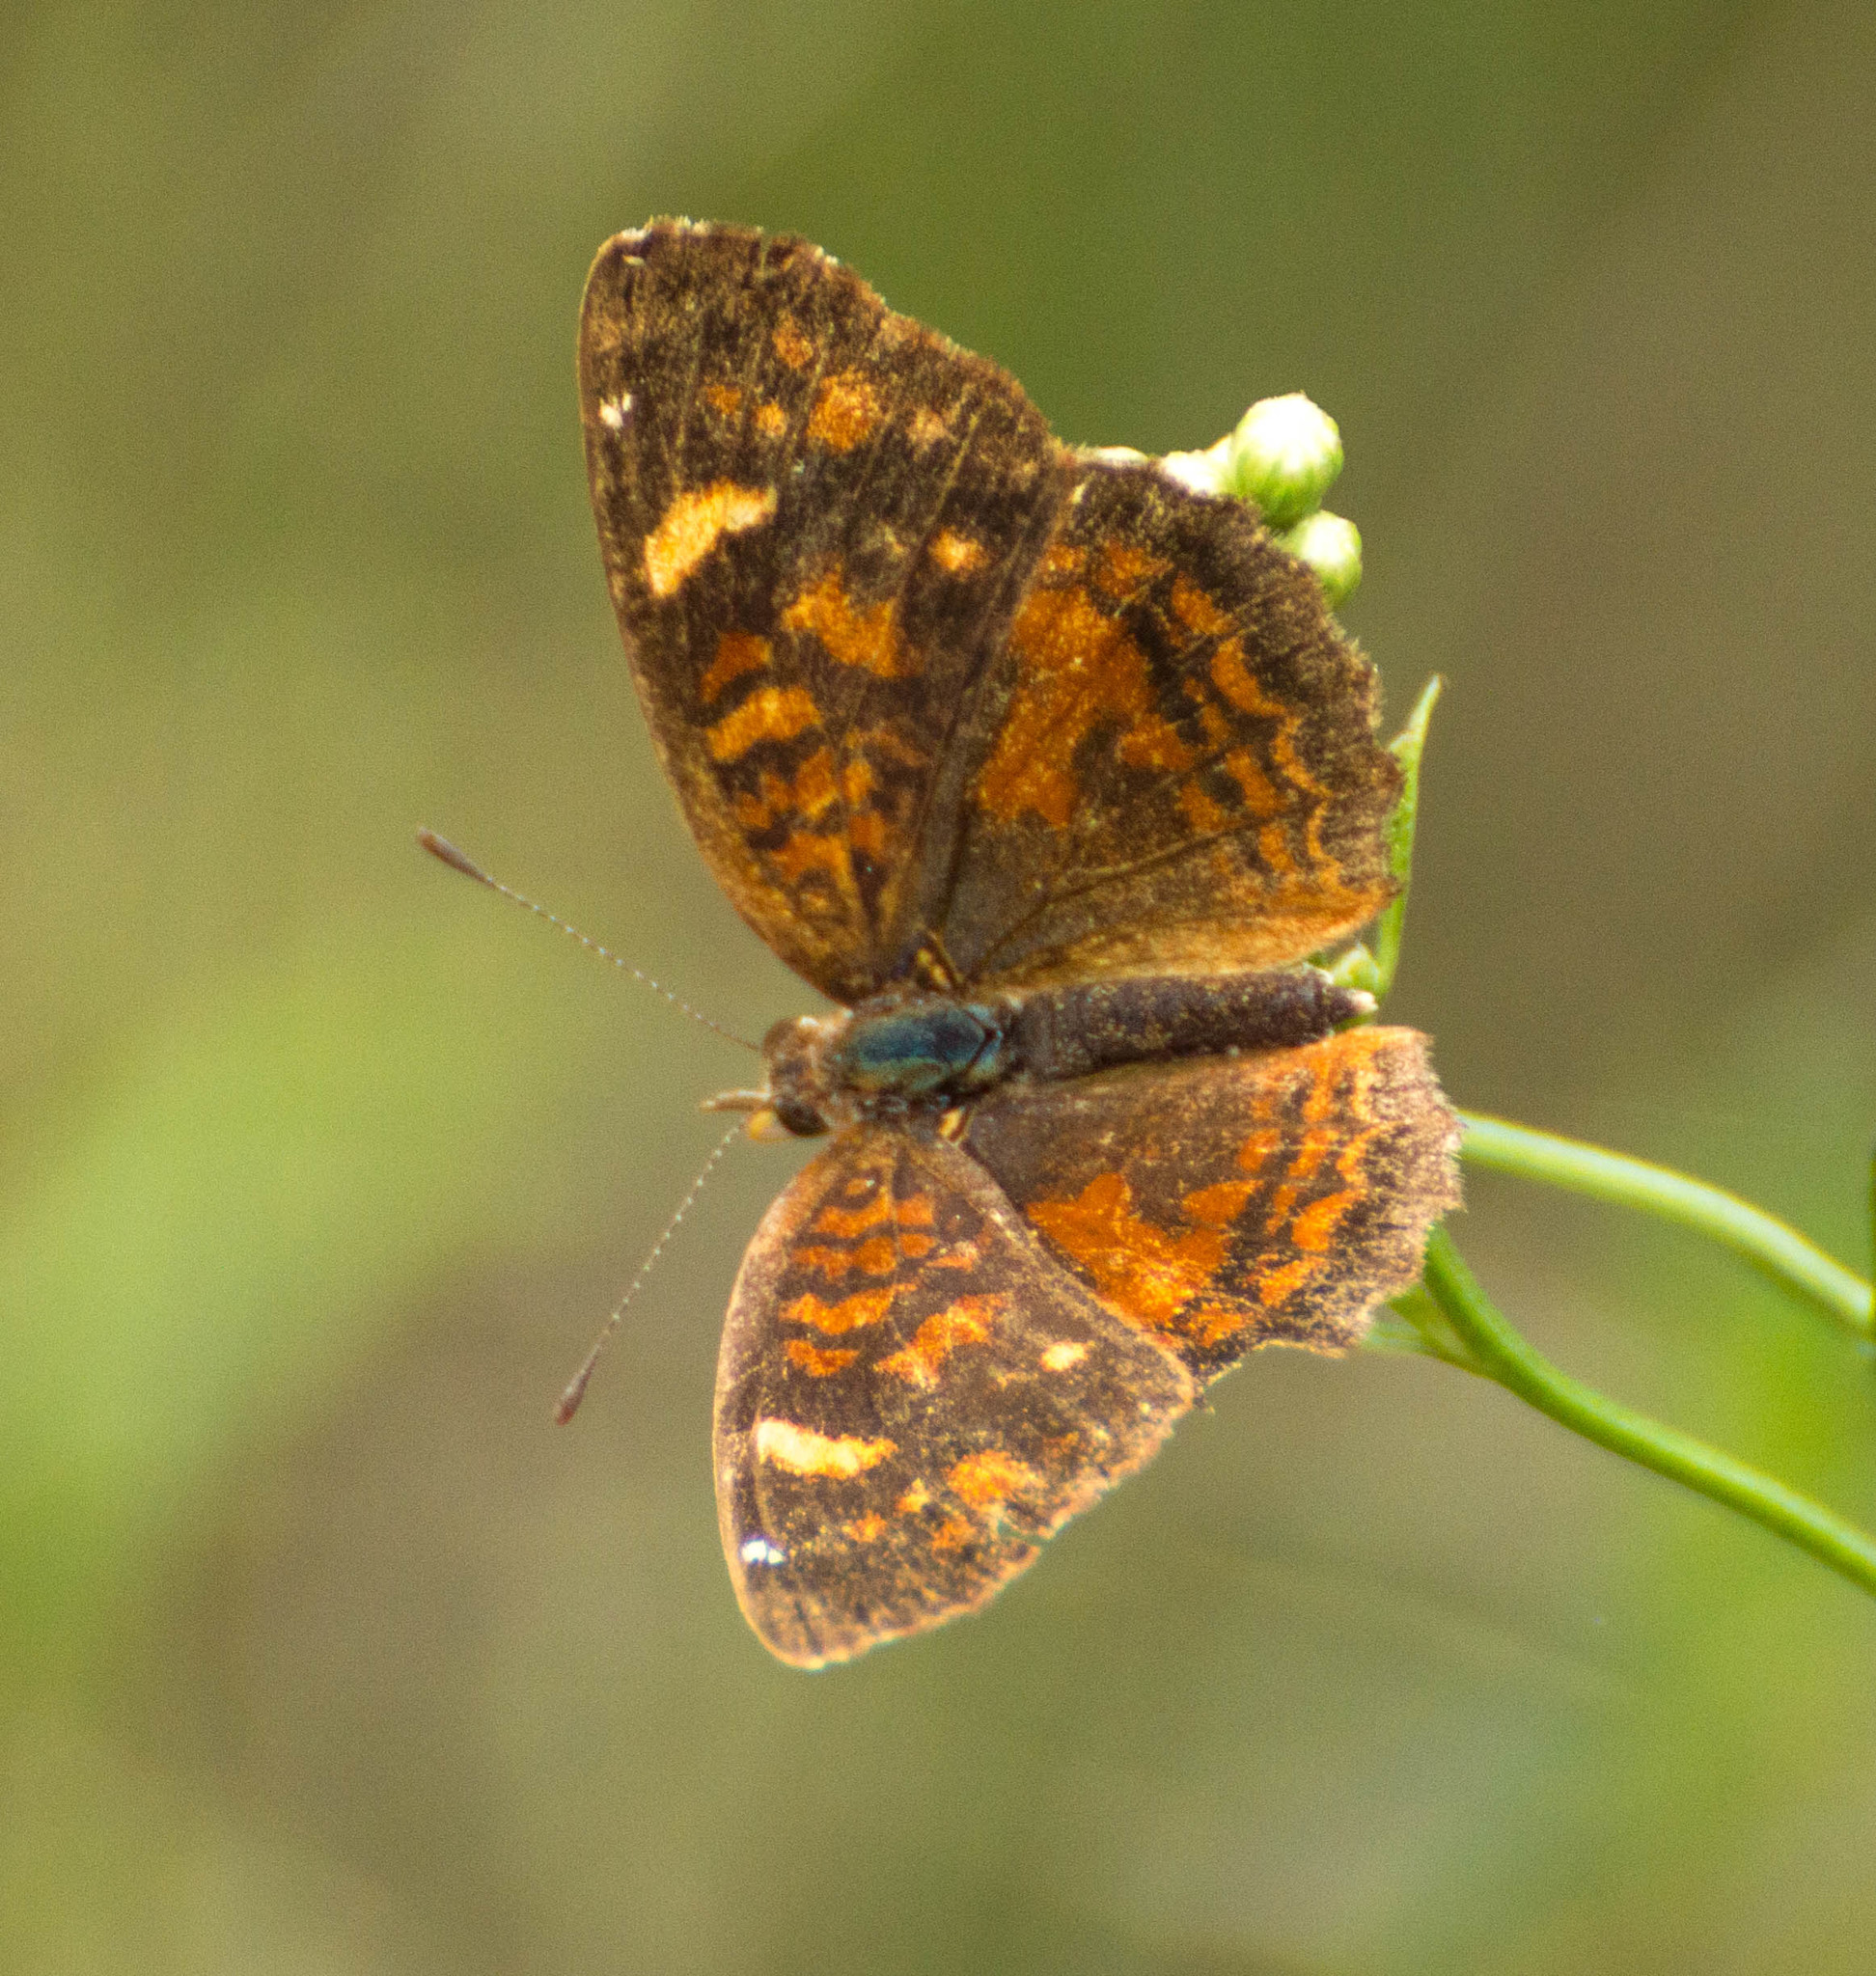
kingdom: Animalia
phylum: Arthropoda
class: Insecta
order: Lepidoptera
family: Nymphalidae
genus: Ortilia
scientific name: Ortilia velica
